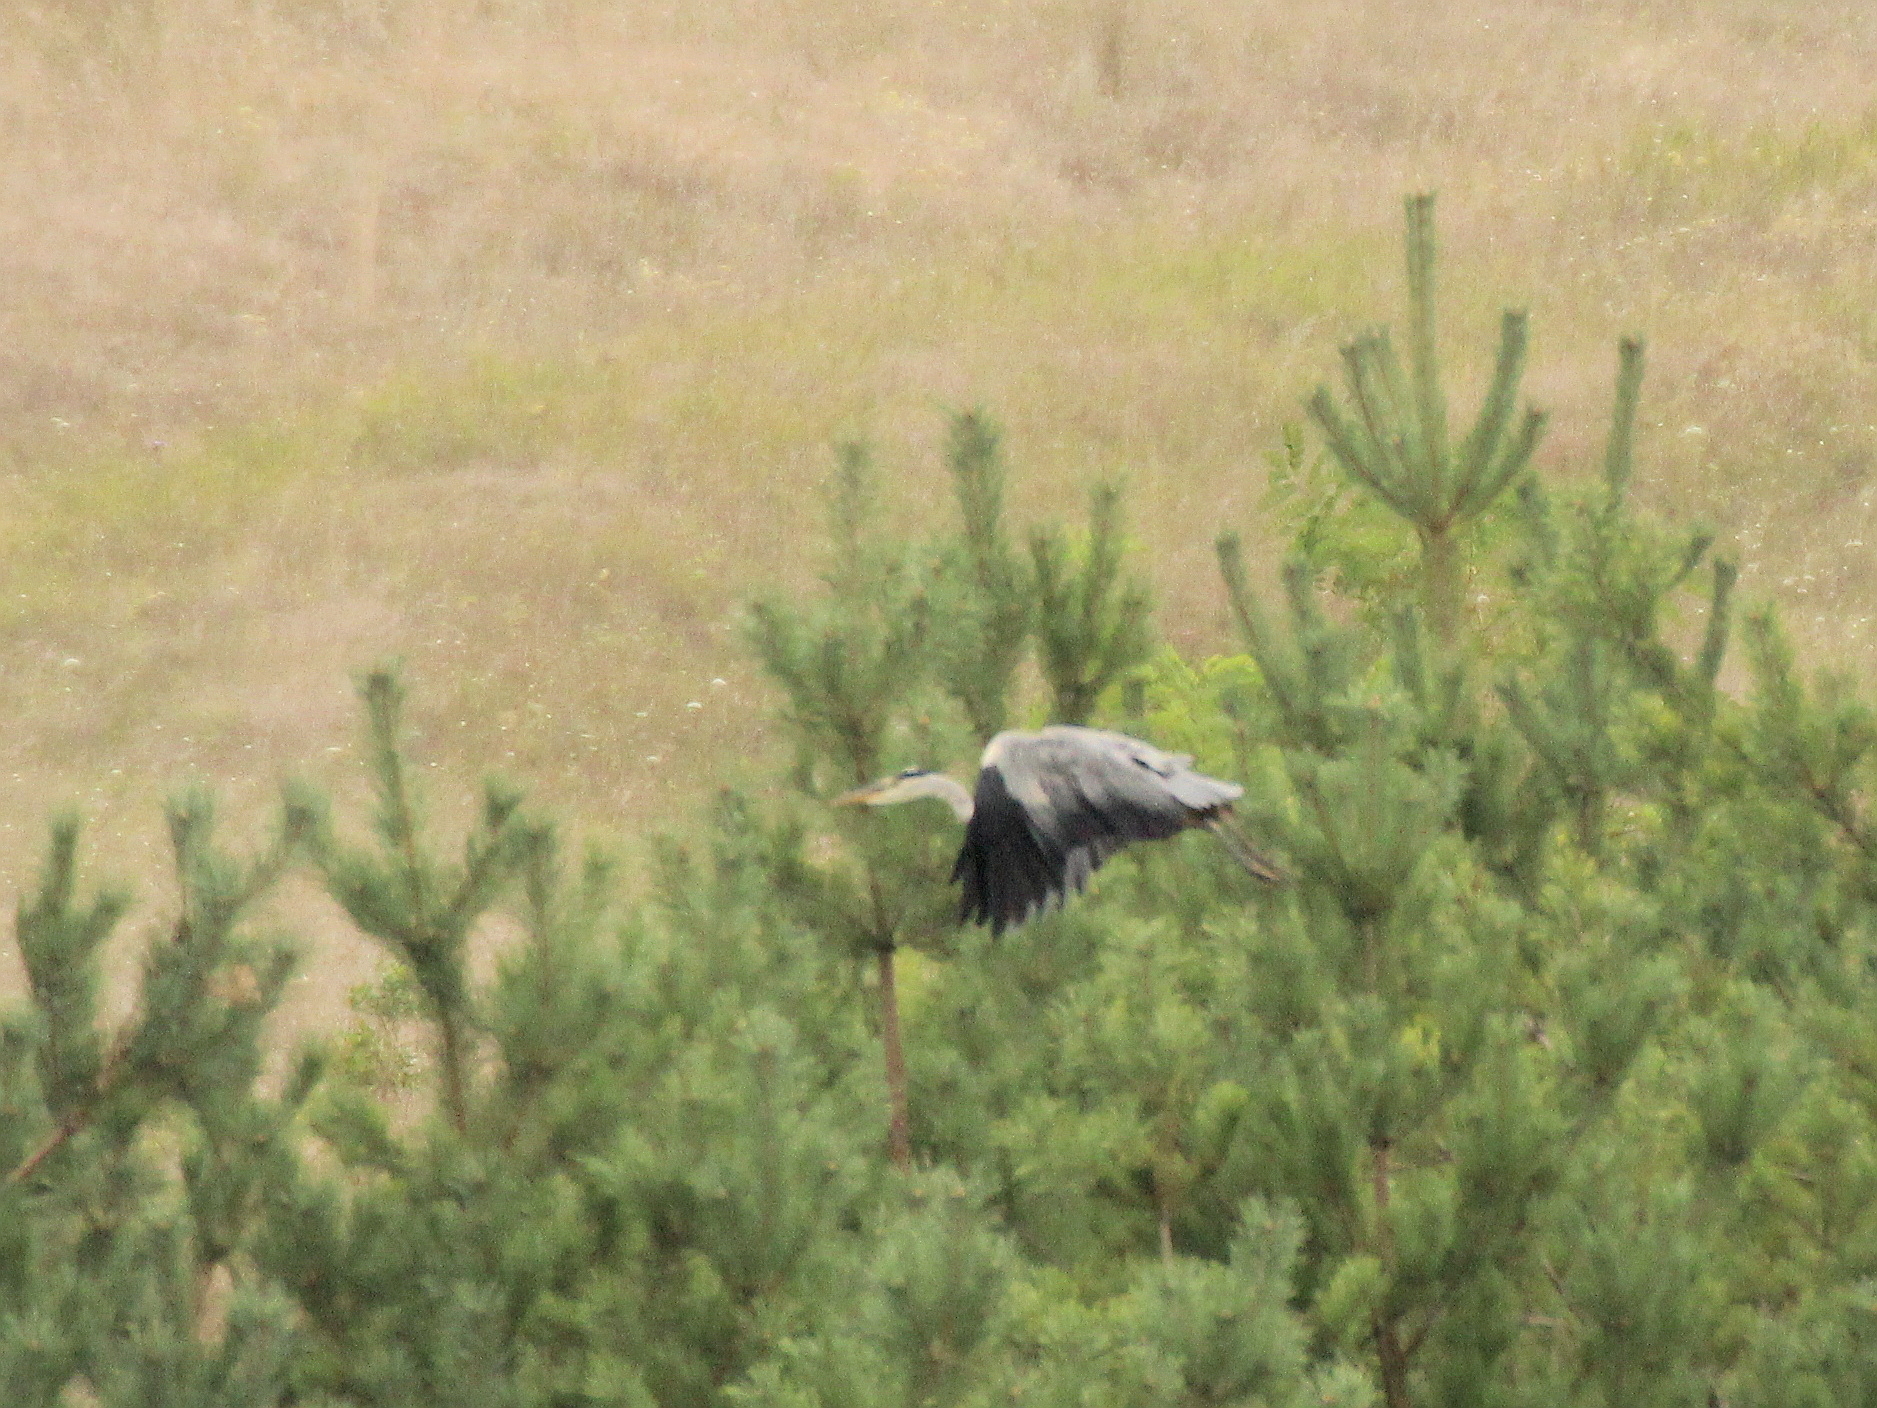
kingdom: Animalia
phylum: Chordata
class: Aves
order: Pelecaniformes
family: Ardeidae
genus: Ardea
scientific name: Ardea cinerea
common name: Grey heron
